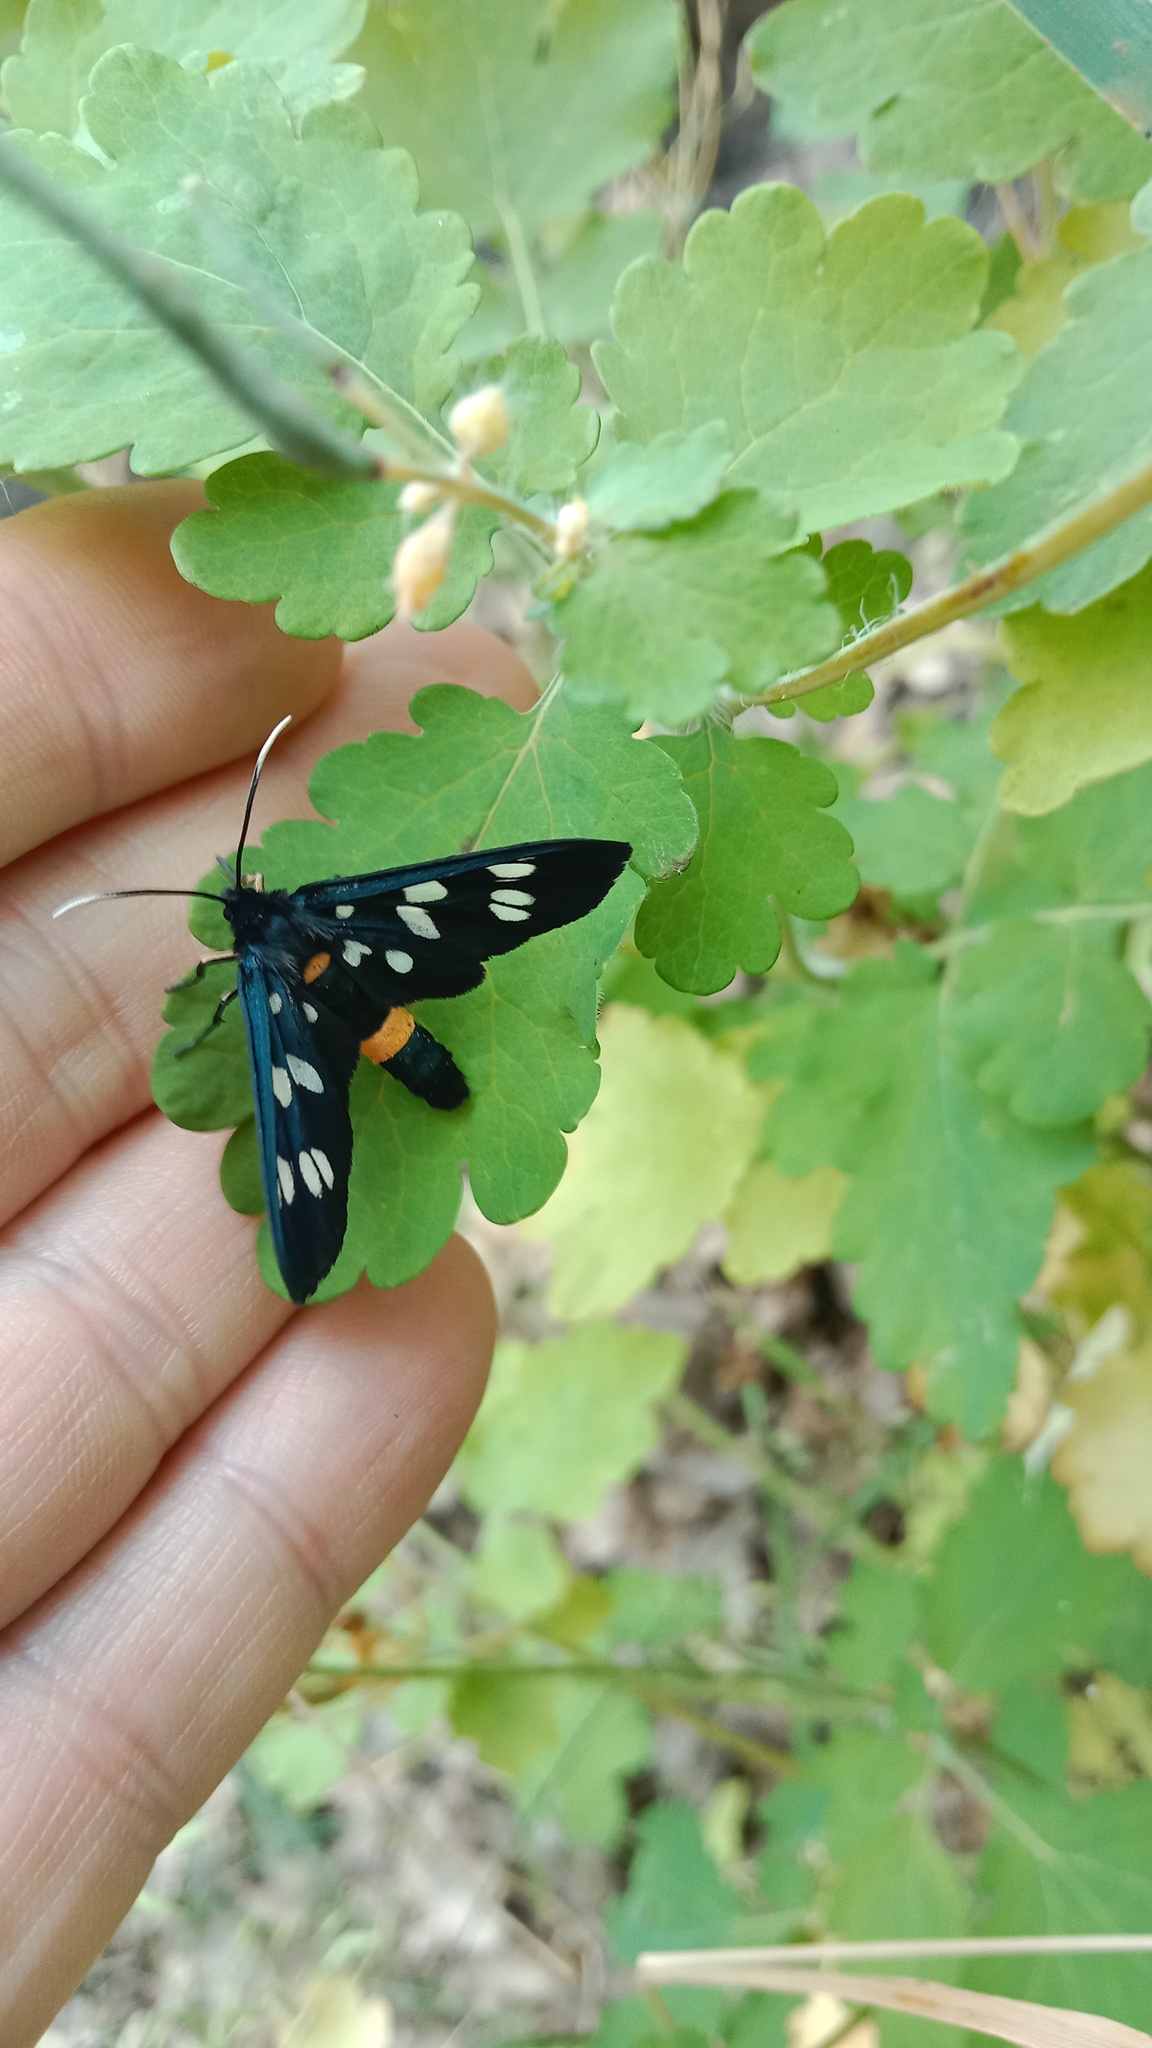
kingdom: Animalia
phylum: Arthropoda
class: Insecta
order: Lepidoptera
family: Erebidae
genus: Amata
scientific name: Amata phegea
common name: Nine-spotted
